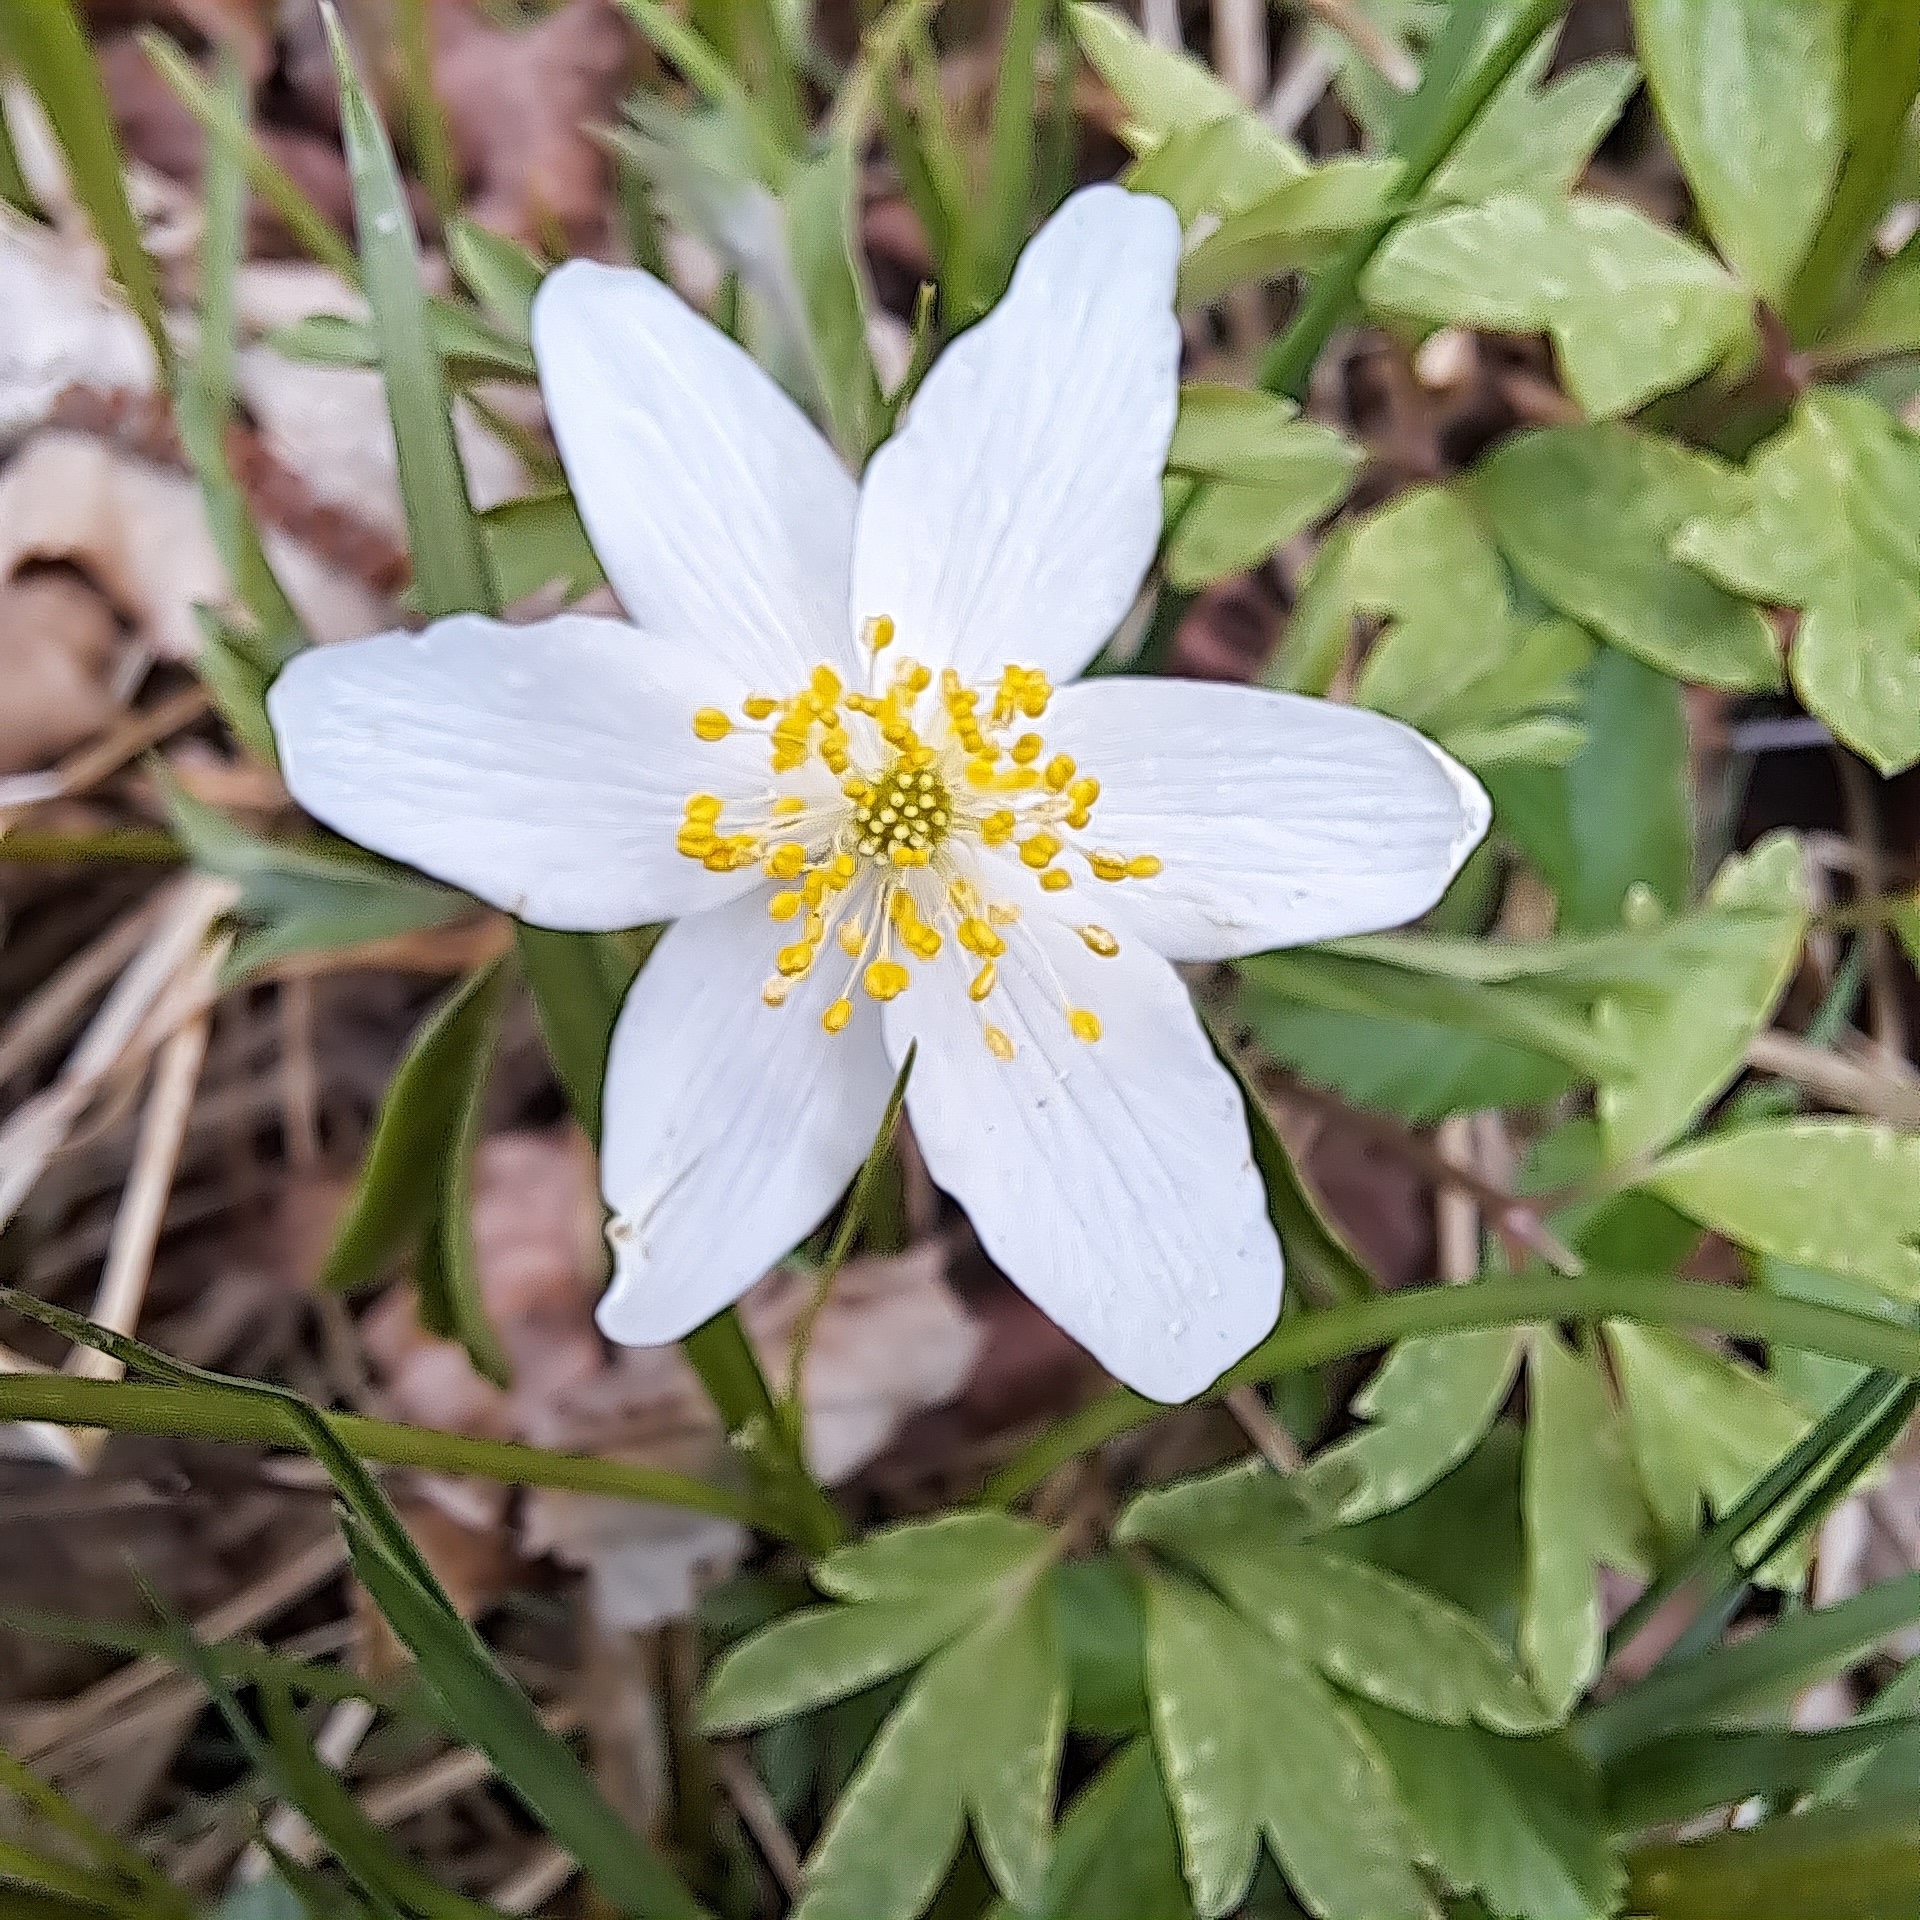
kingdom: Plantae
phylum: Tracheophyta
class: Magnoliopsida
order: Ranunculales
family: Ranunculaceae
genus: Anemone
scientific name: Anemone nemorosa
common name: Wood anemone
